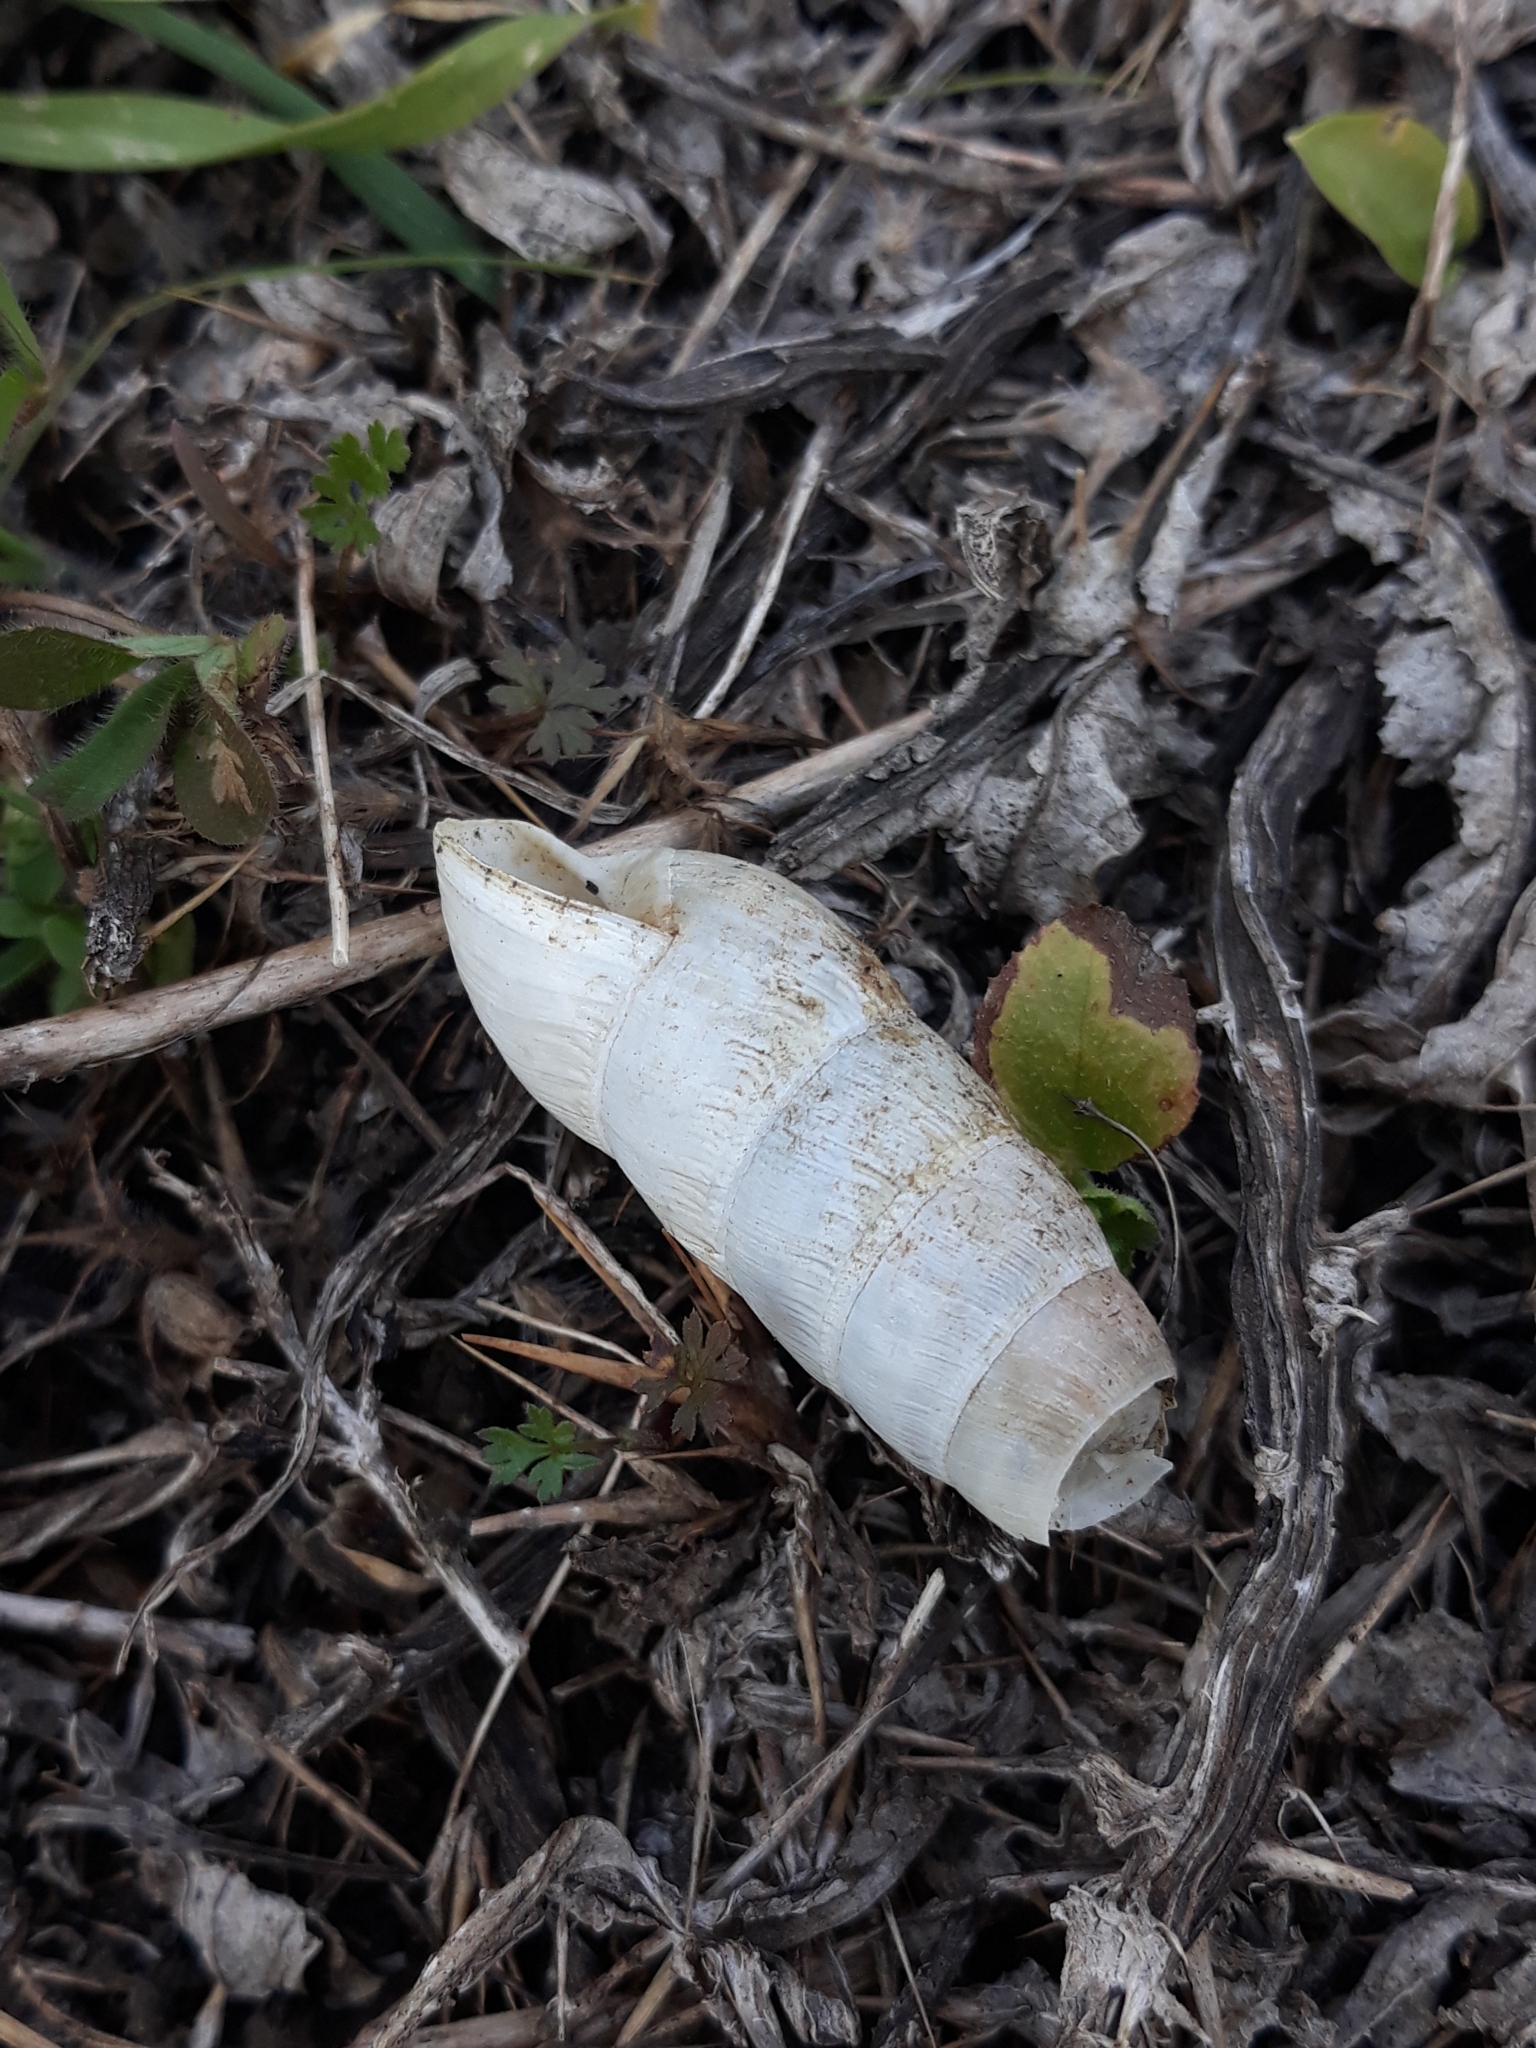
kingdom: Animalia
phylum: Mollusca
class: Gastropoda
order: Stylommatophora
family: Achatinidae
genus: Rumina
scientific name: Rumina decollata
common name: Decollate snail
